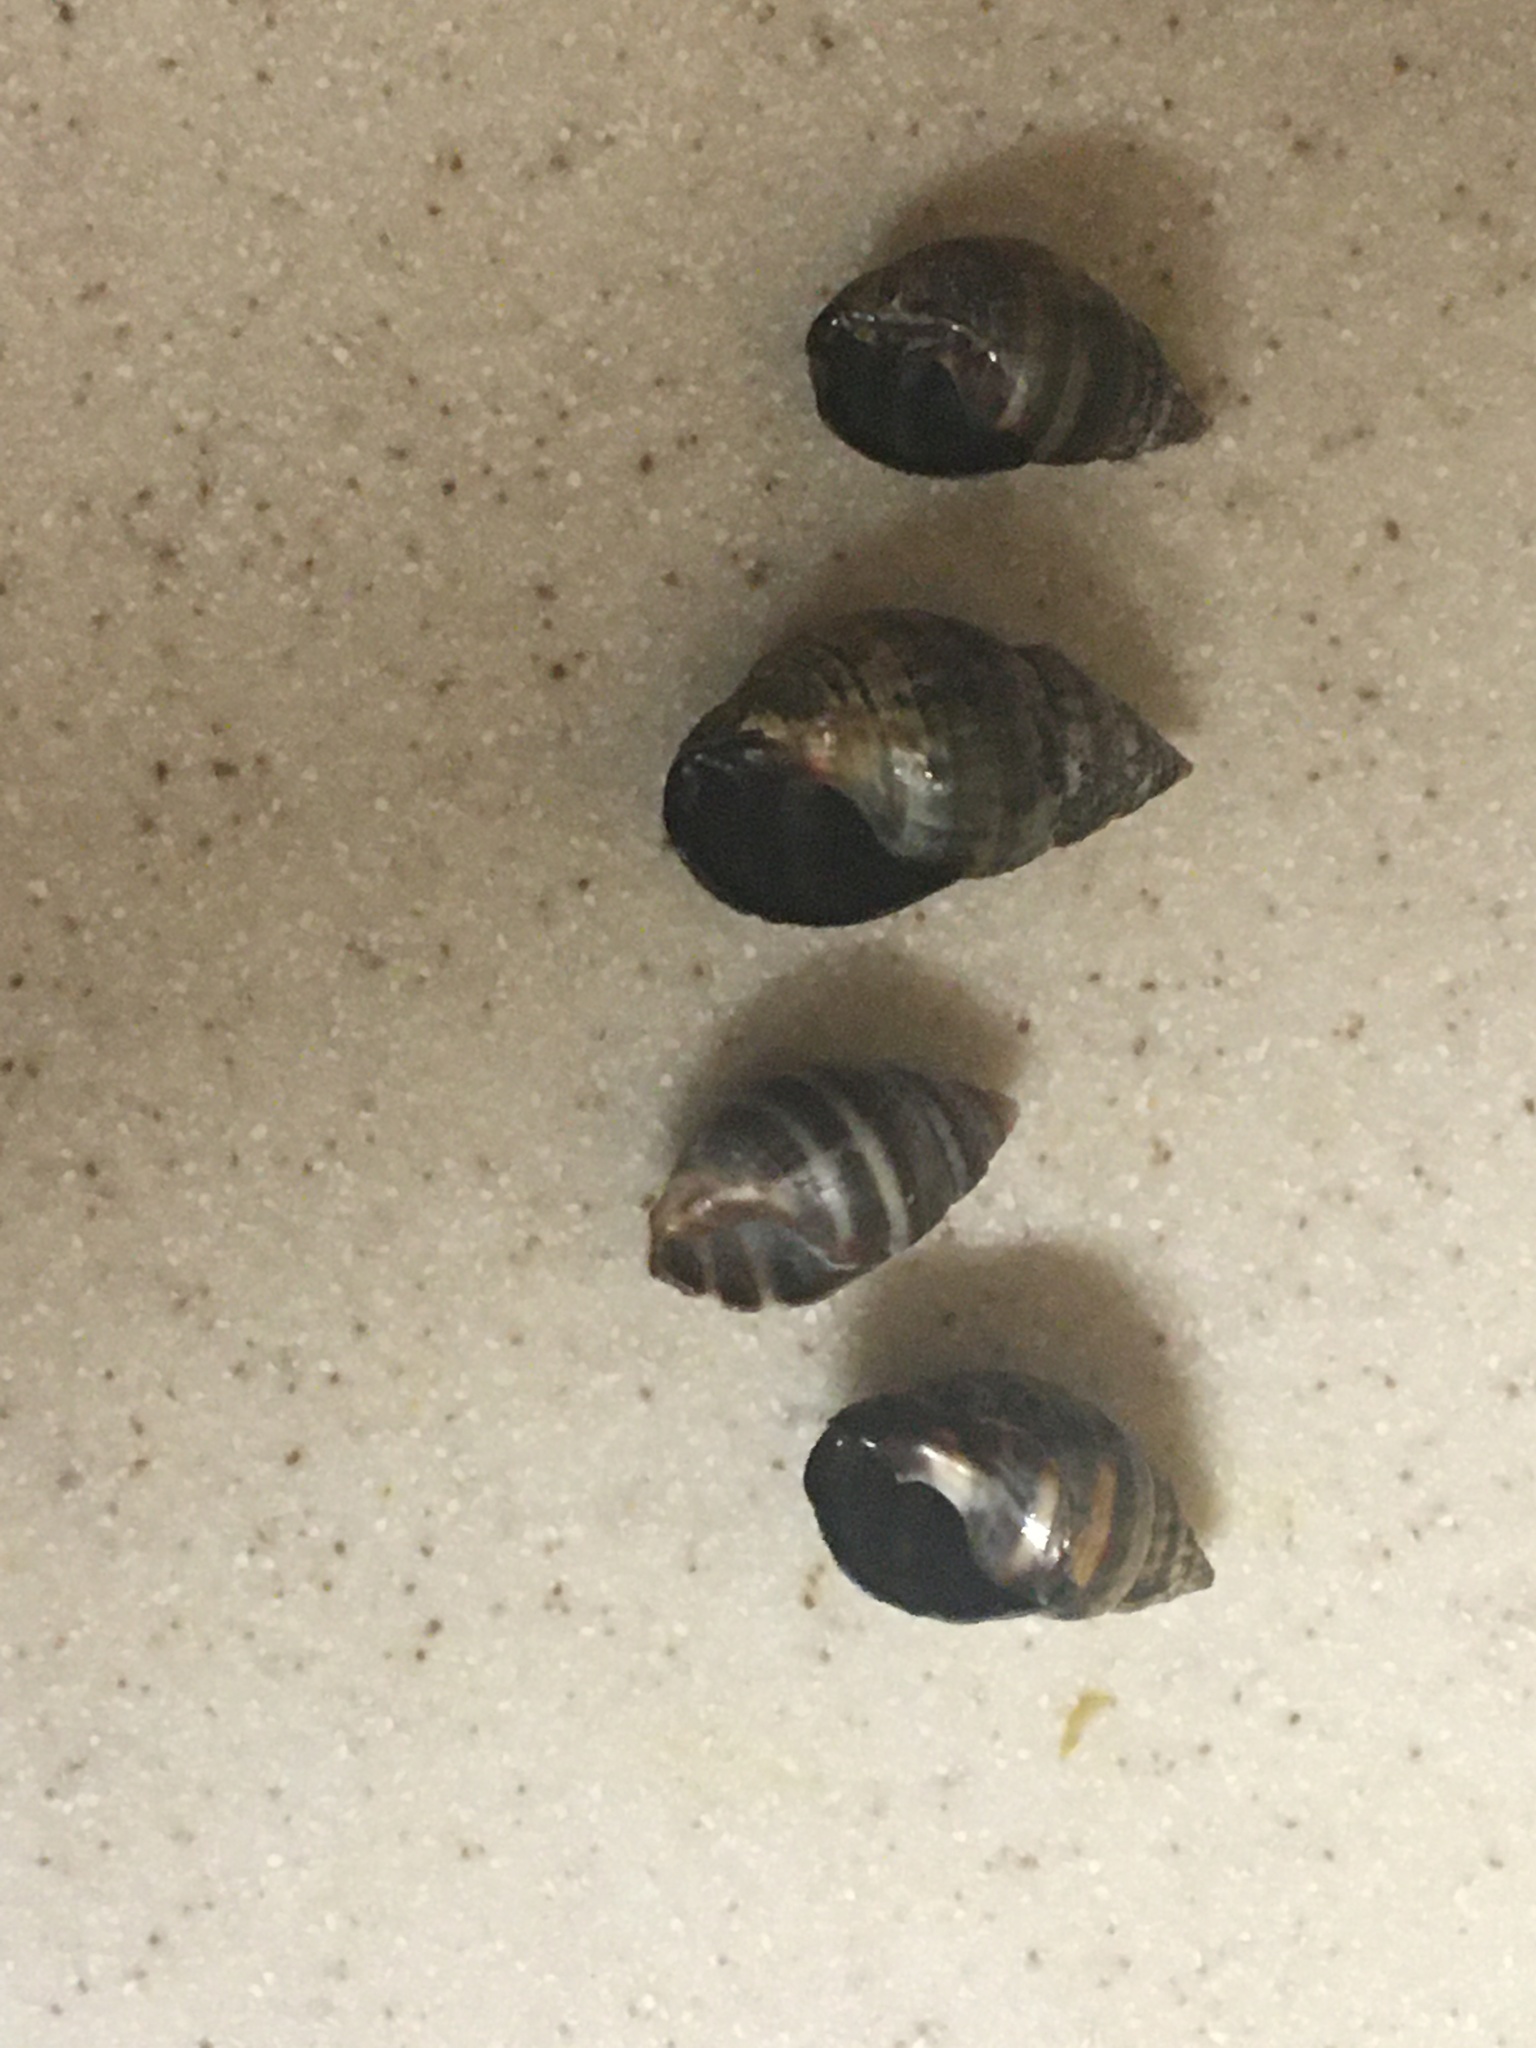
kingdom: Animalia
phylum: Mollusca
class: Gastropoda
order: Neogastropoda
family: Nassariidae
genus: Ilyanassa
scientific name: Ilyanassa obsoleta
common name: Eastern mudsnail
